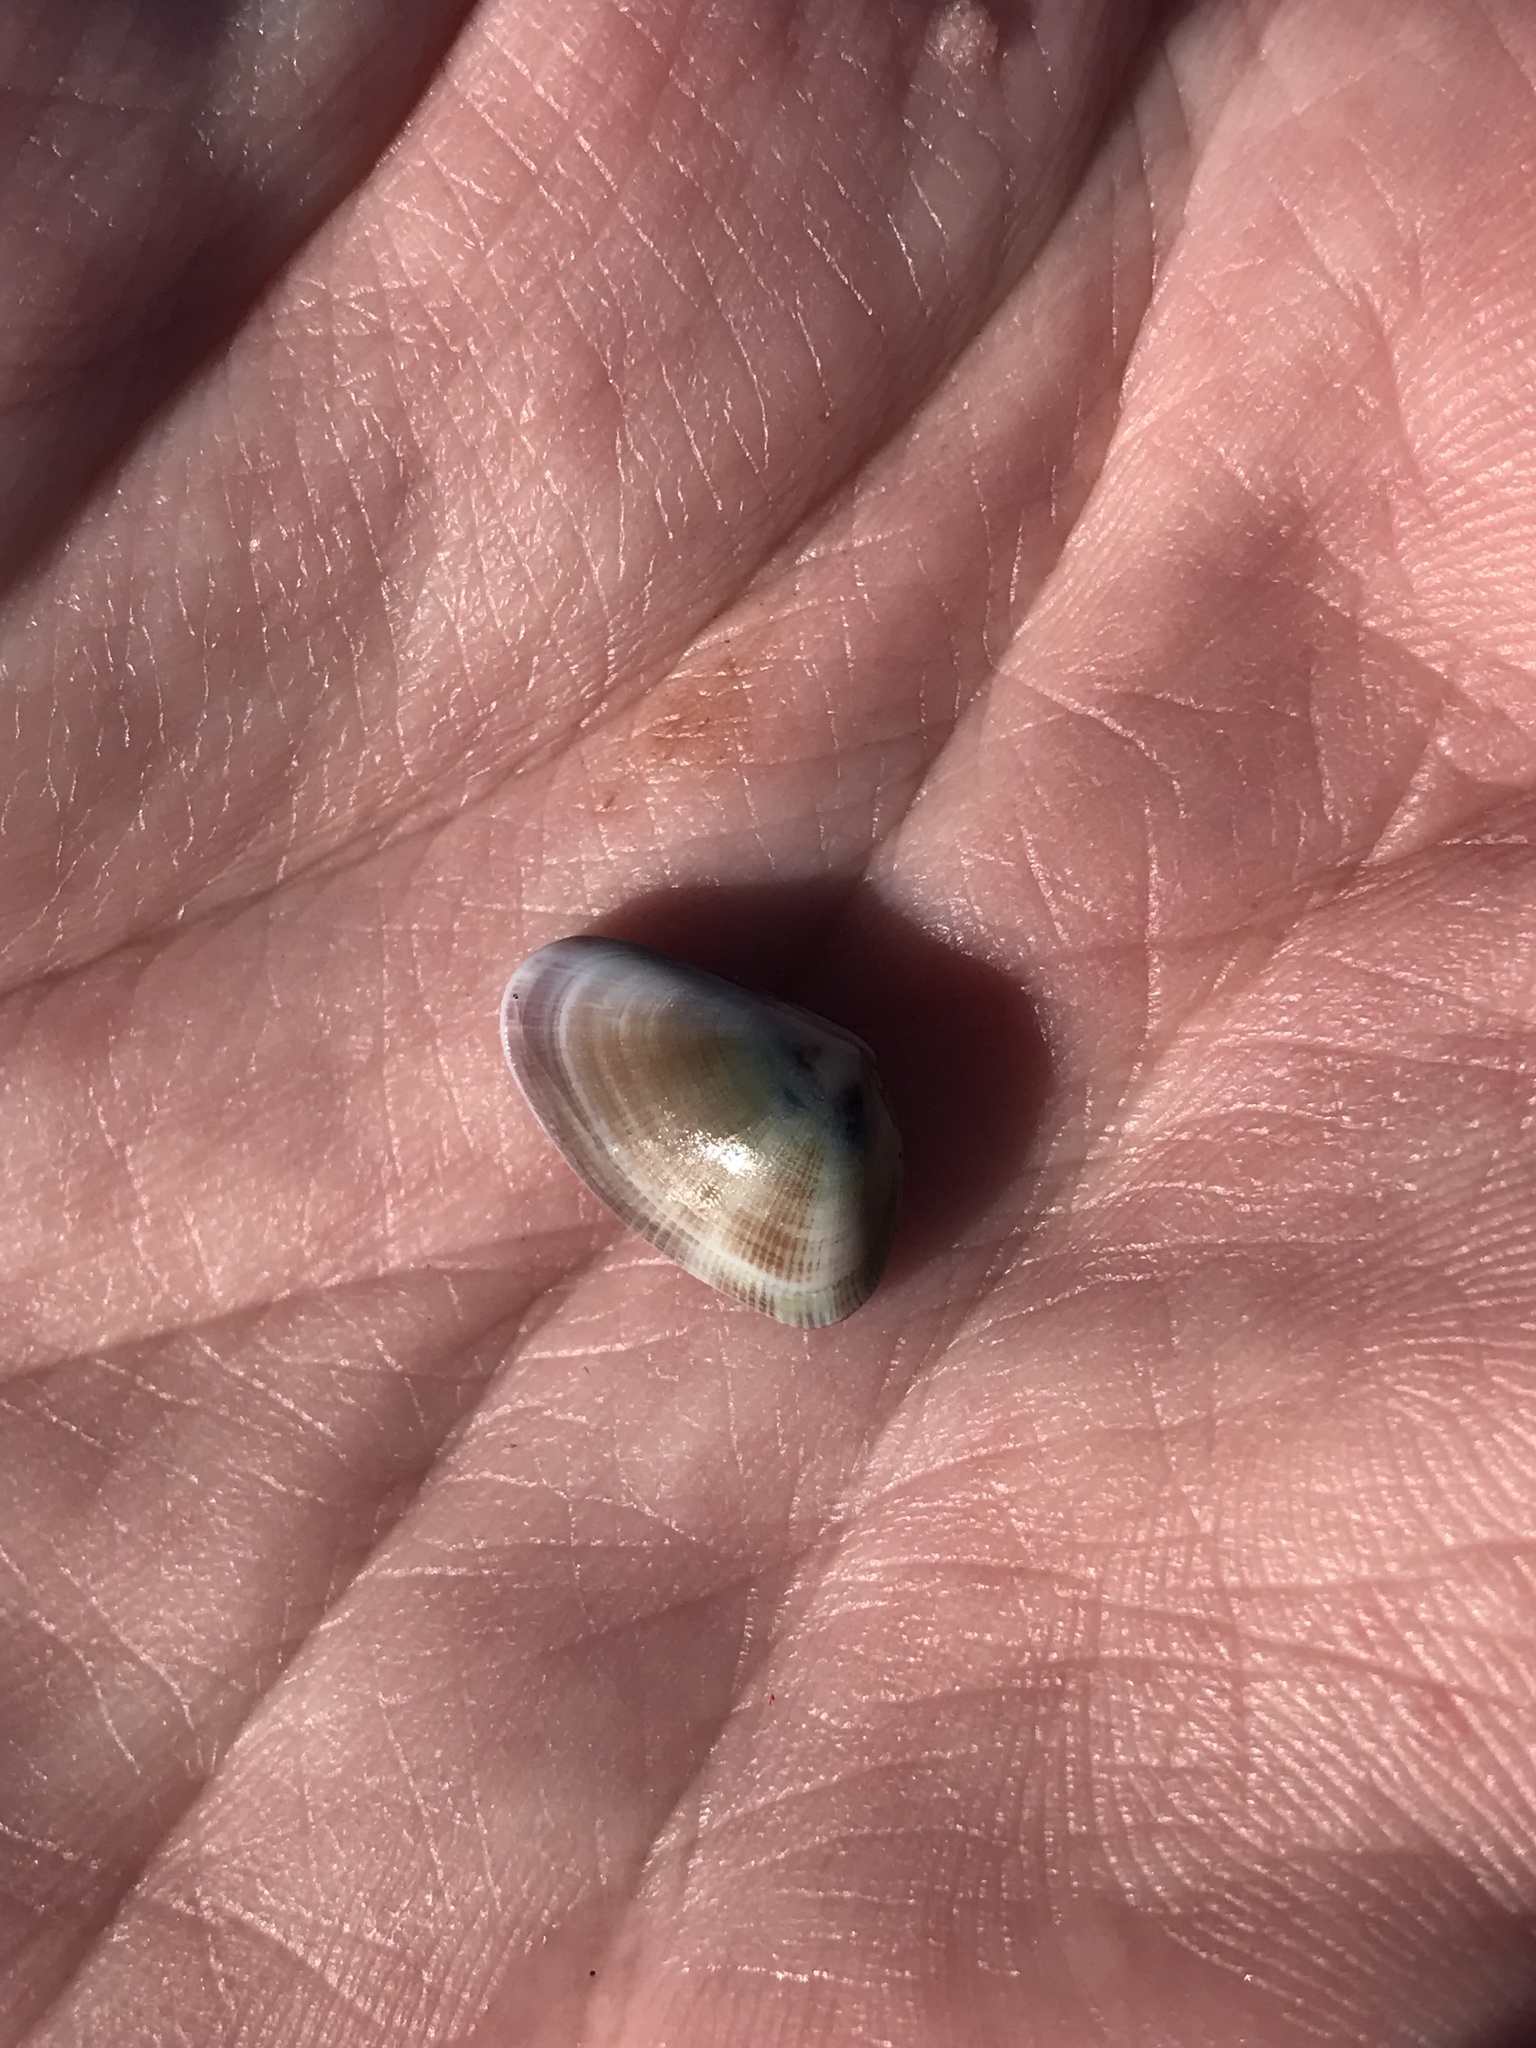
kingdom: Animalia
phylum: Mollusca
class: Bivalvia
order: Cardiida
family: Donacidae
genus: Donax
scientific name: Donax gouldii
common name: Gould beanclam
